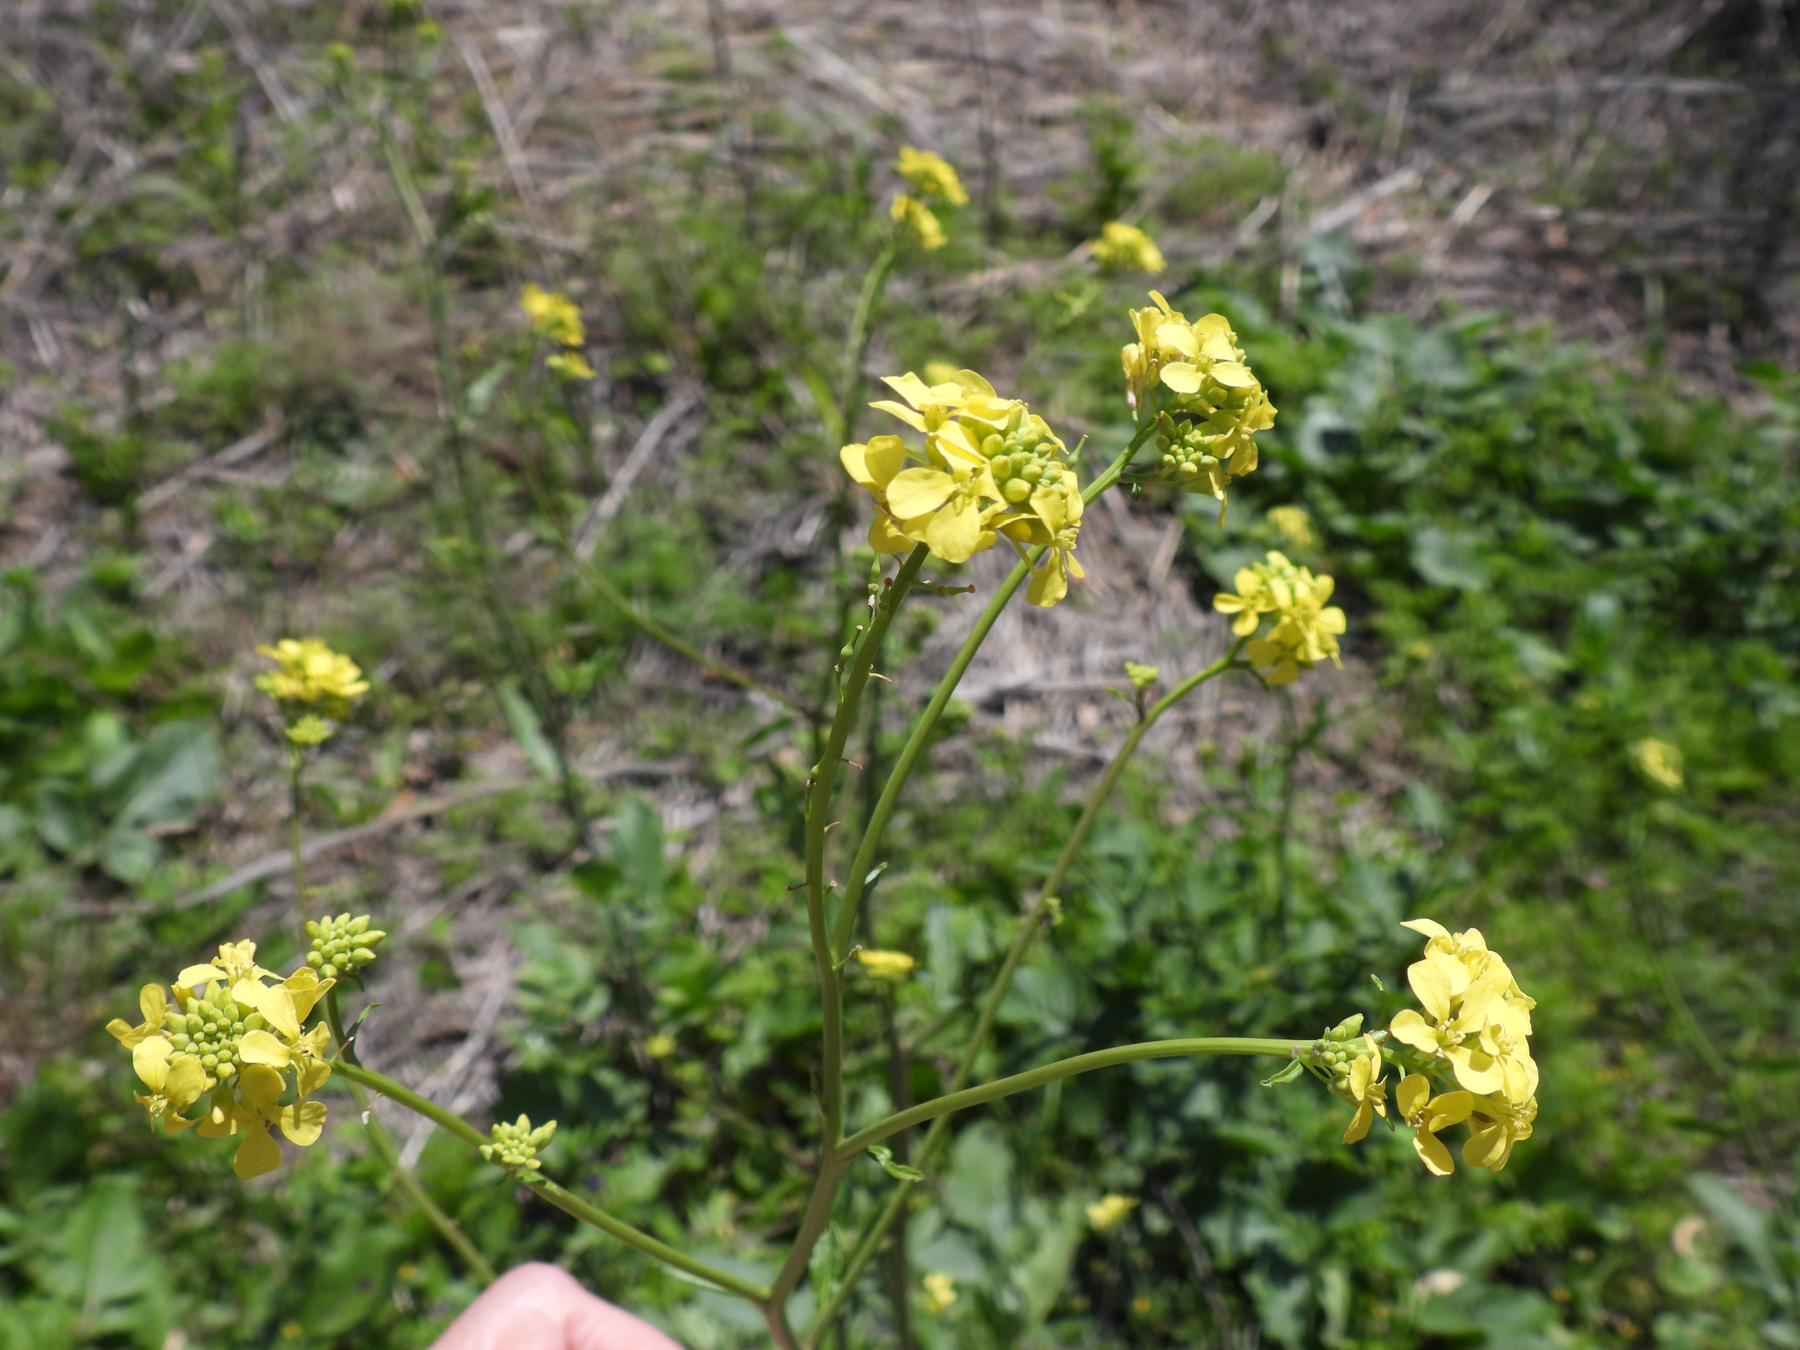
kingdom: Plantae
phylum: Tracheophyta
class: Magnoliopsida
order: Brassicales
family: Brassicaceae
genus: Rapistrum
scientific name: Rapistrum rugosum
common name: Annual bastardcabbage
